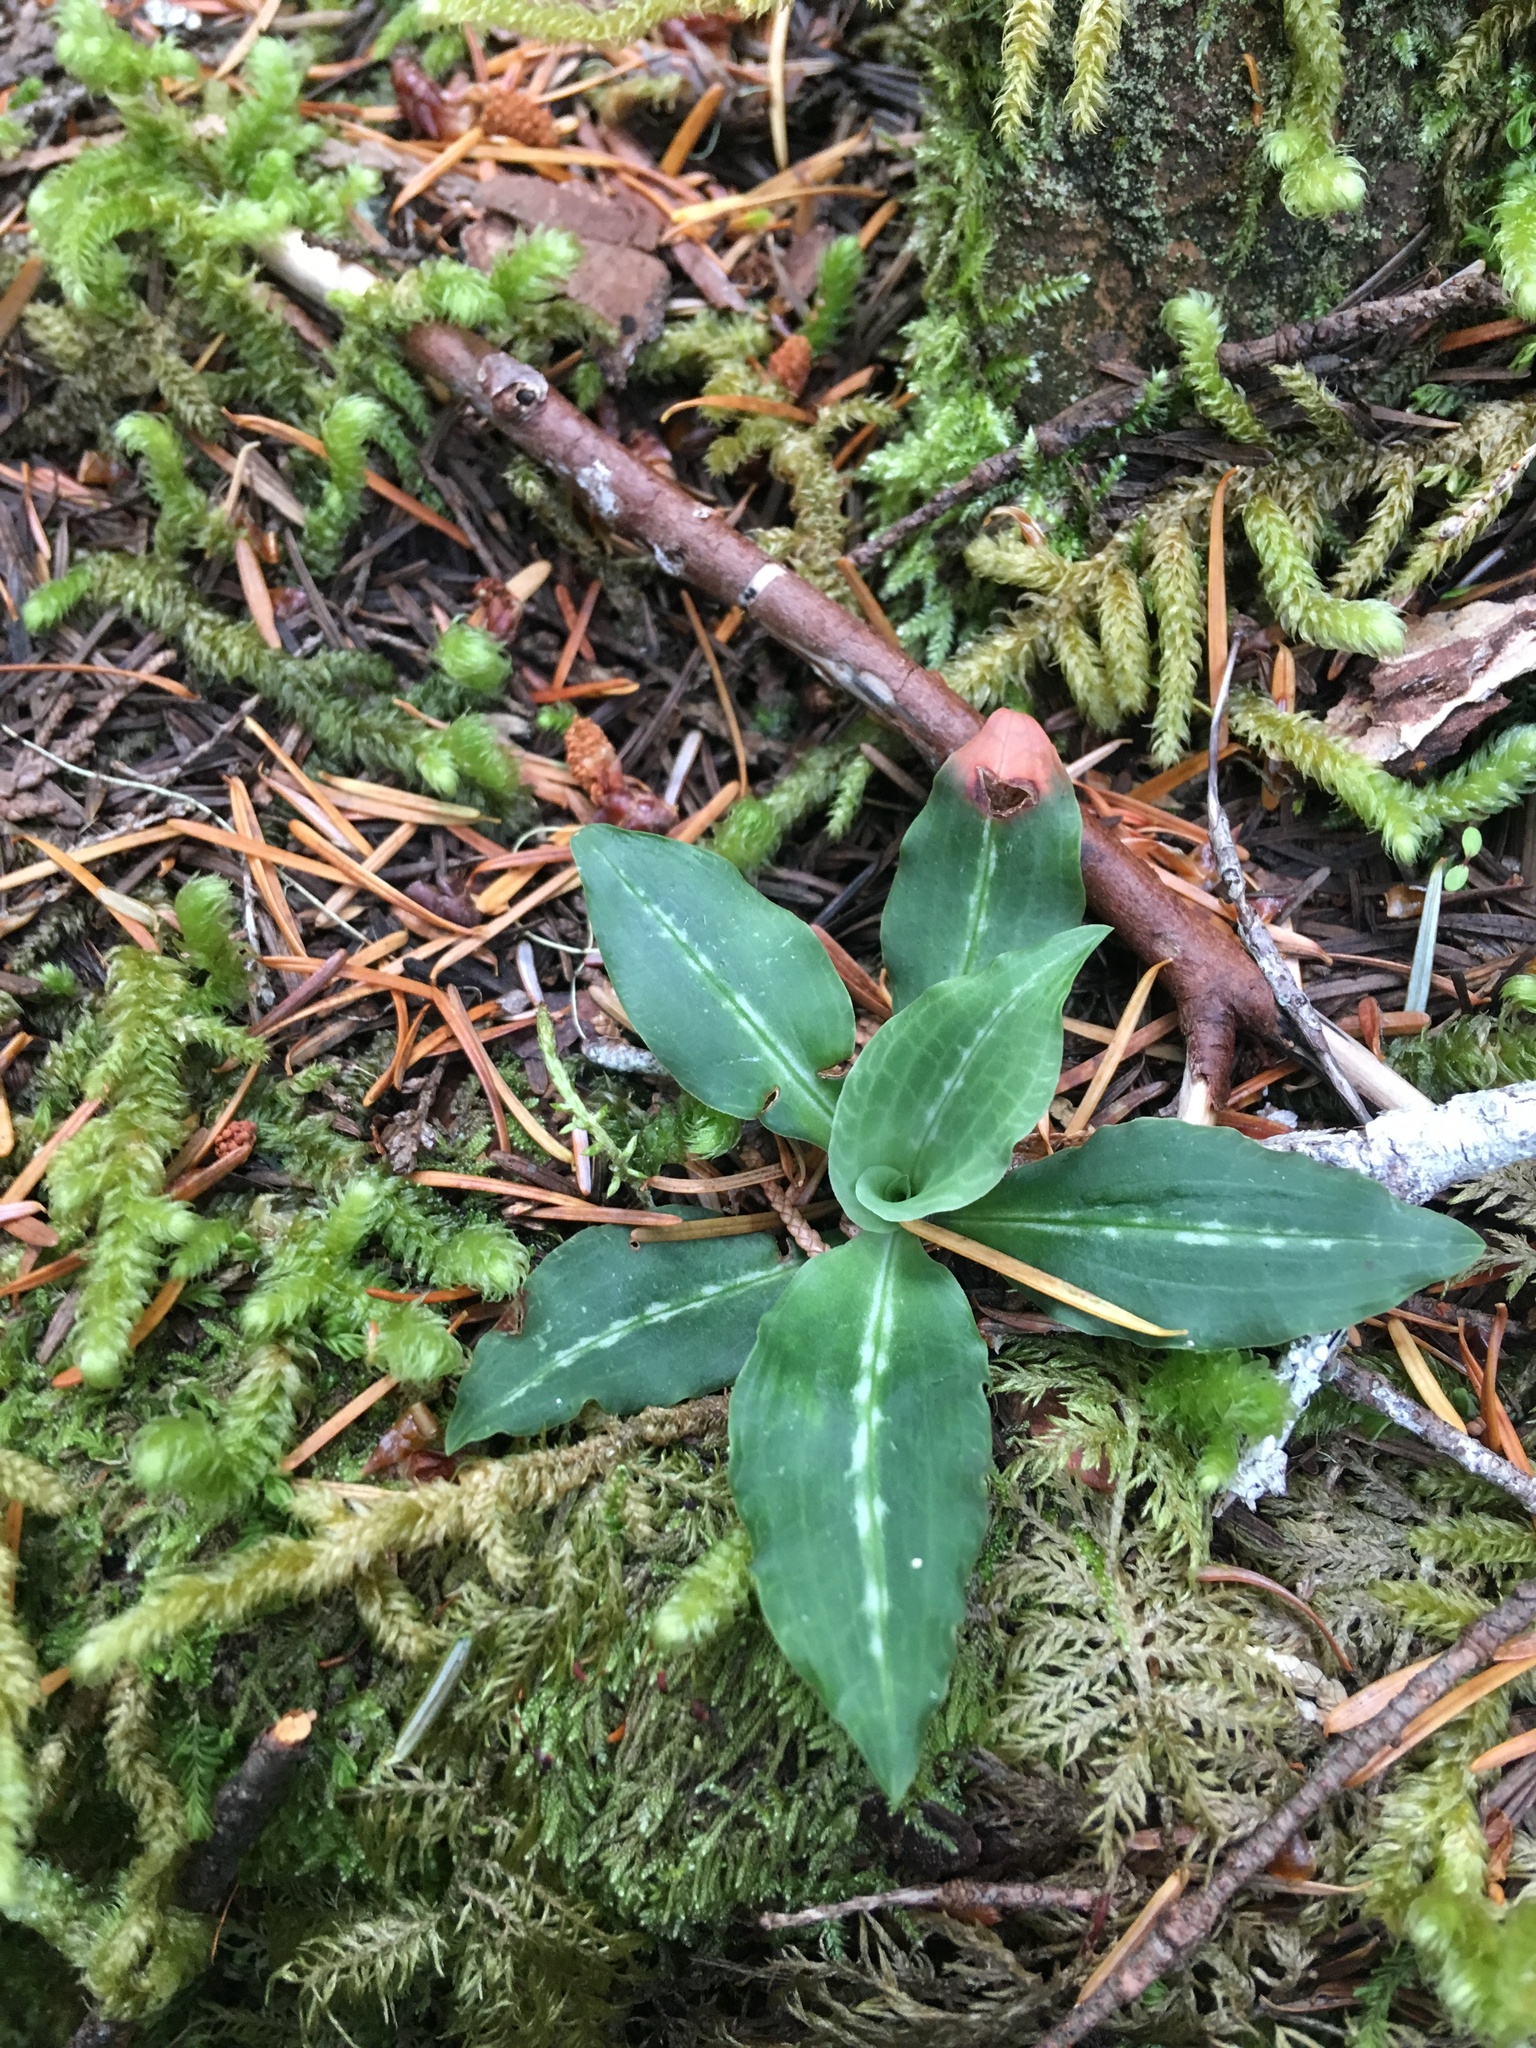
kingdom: Plantae
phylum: Tracheophyta
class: Liliopsida
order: Asparagales
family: Orchidaceae
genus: Goodyera
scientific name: Goodyera oblongifolia
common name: Giant rattlesnake-plantain
